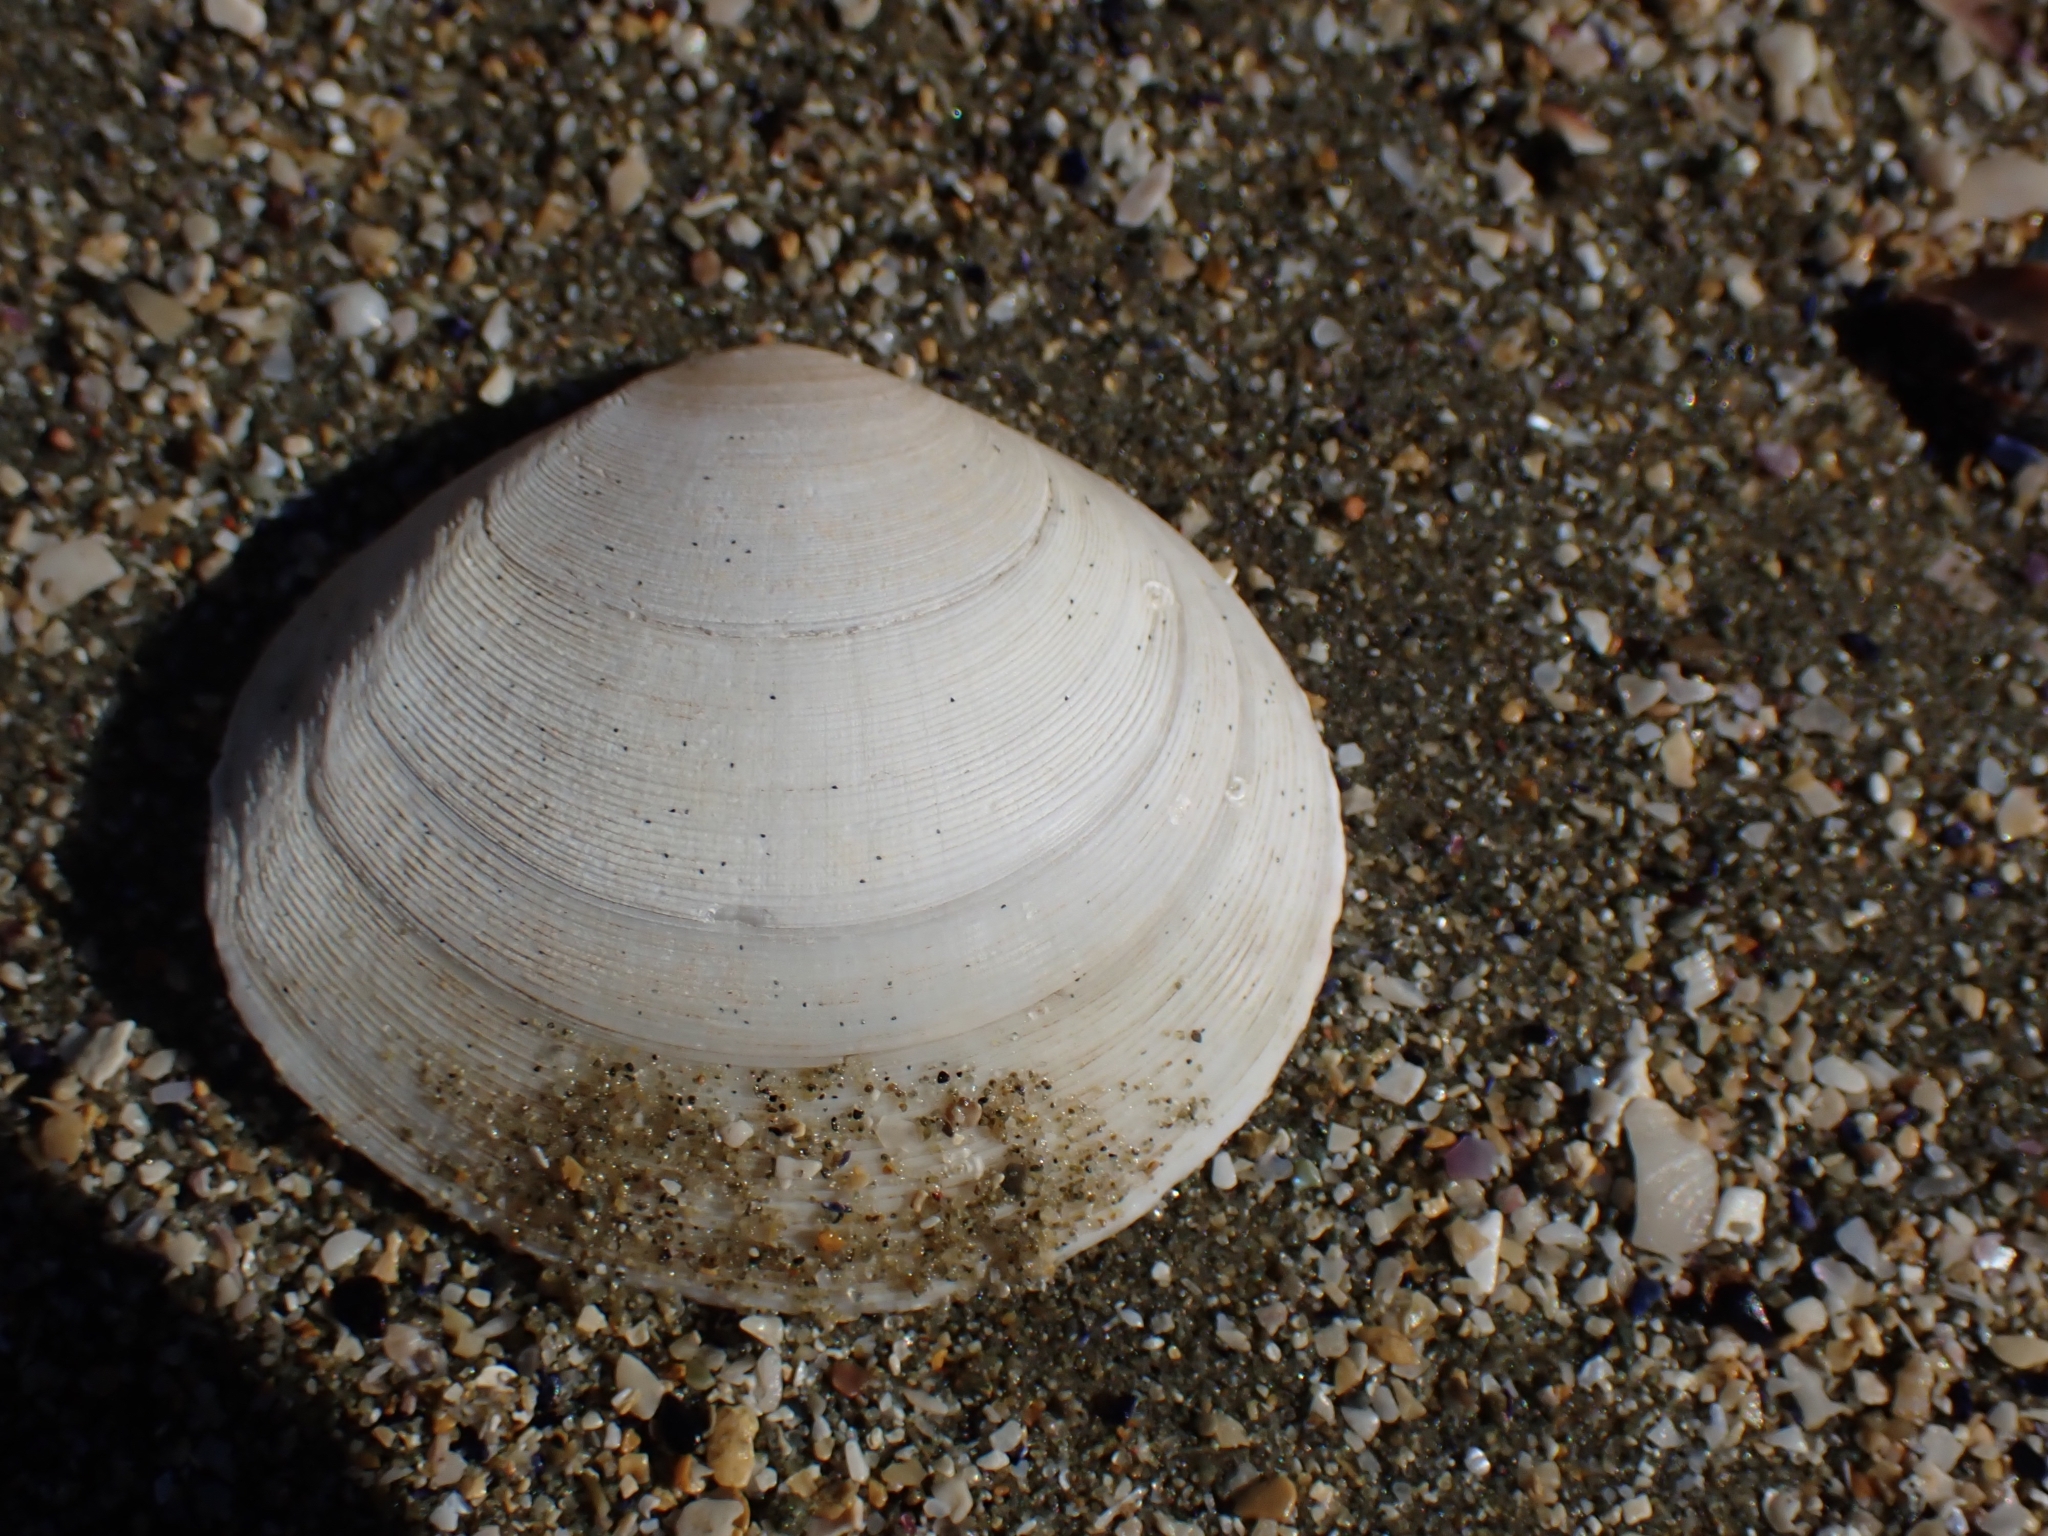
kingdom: Animalia
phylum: Mollusca
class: Bivalvia
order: Cardiida
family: Tellinidae
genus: Pseudarcopagia
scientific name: Pseudarcopagia disculus
